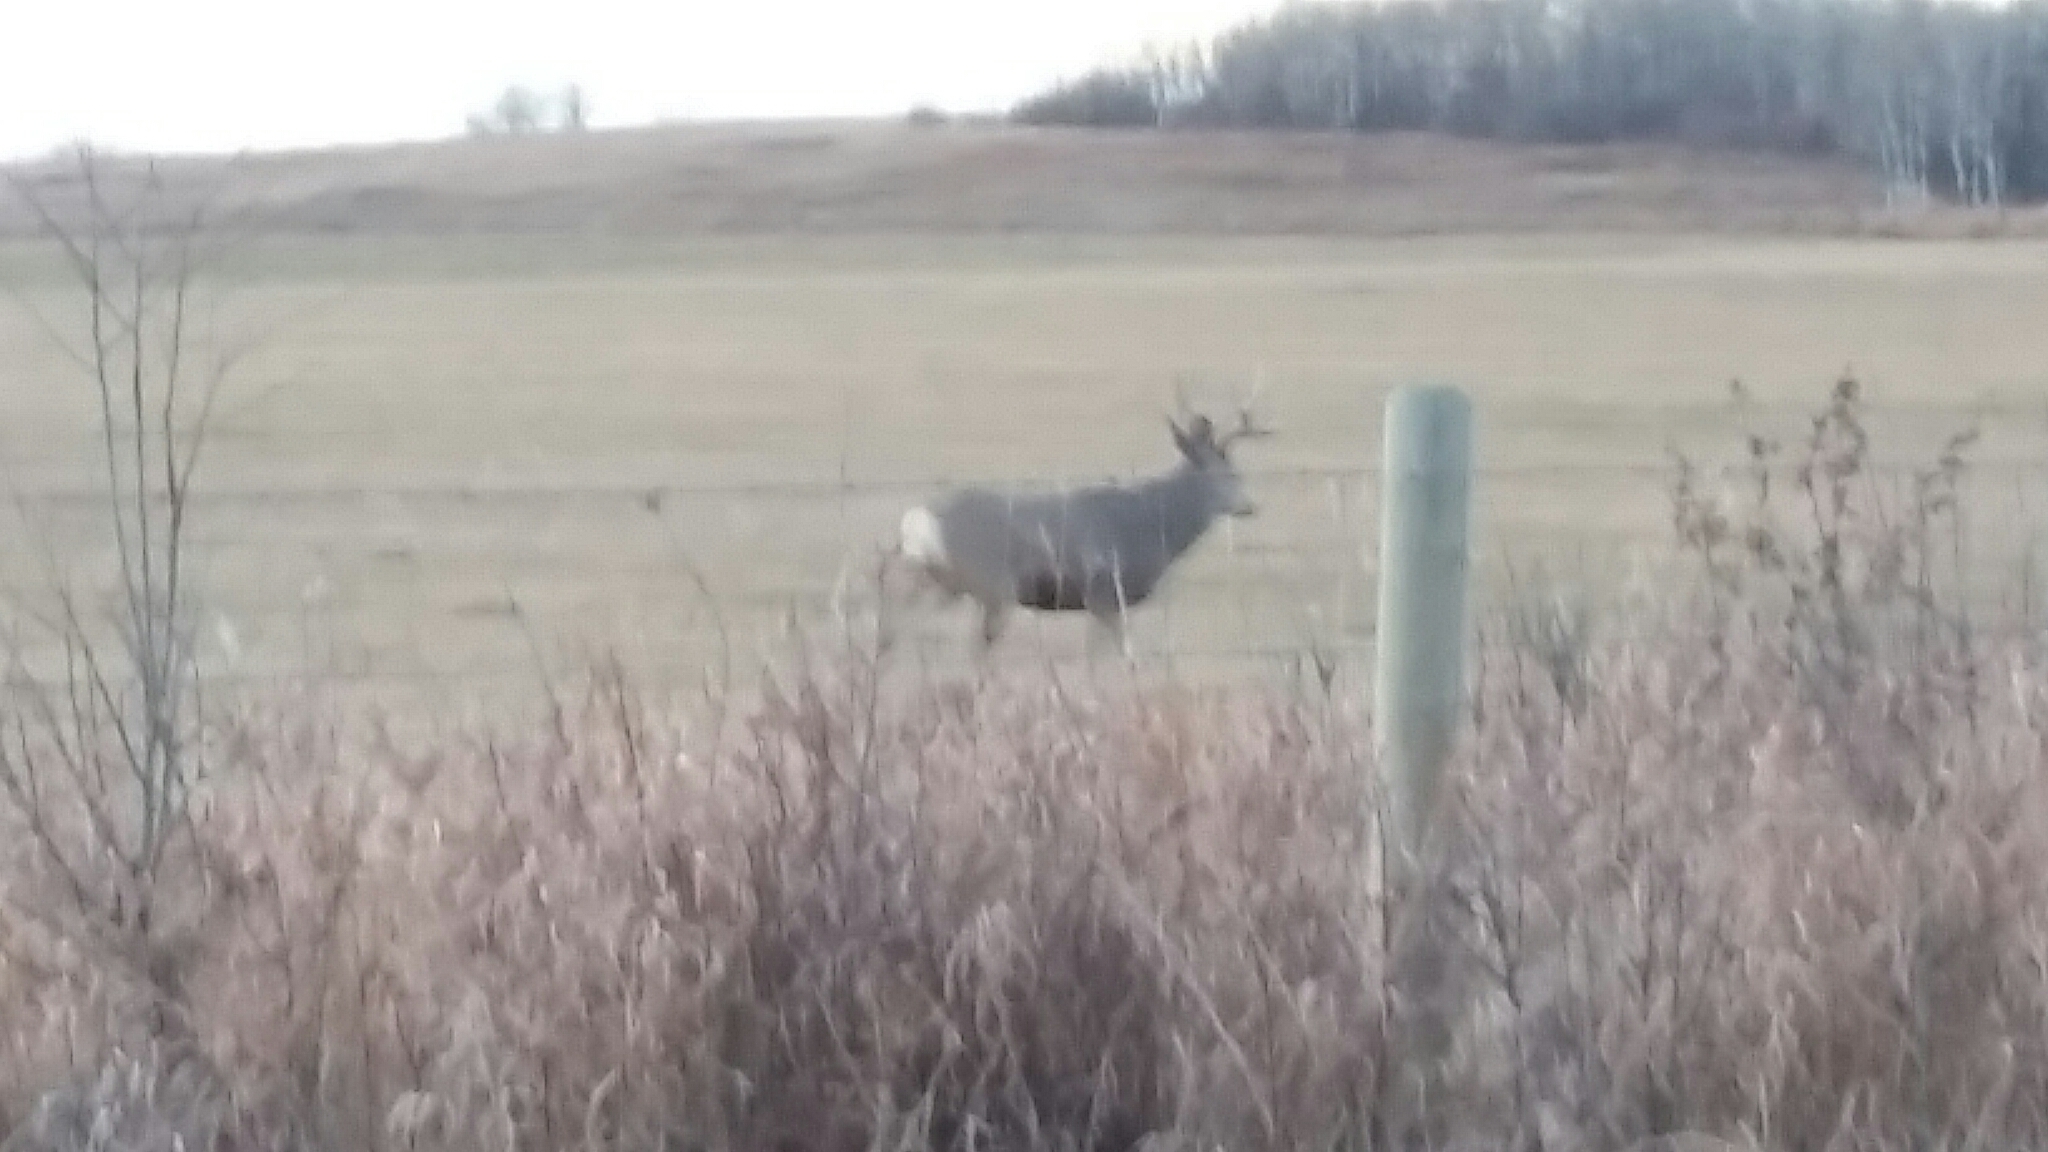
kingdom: Animalia
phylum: Chordata
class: Mammalia
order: Artiodactyla
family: Cervidae
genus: Odocoileus
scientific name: Odocoileus hemionus
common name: Mule deer
